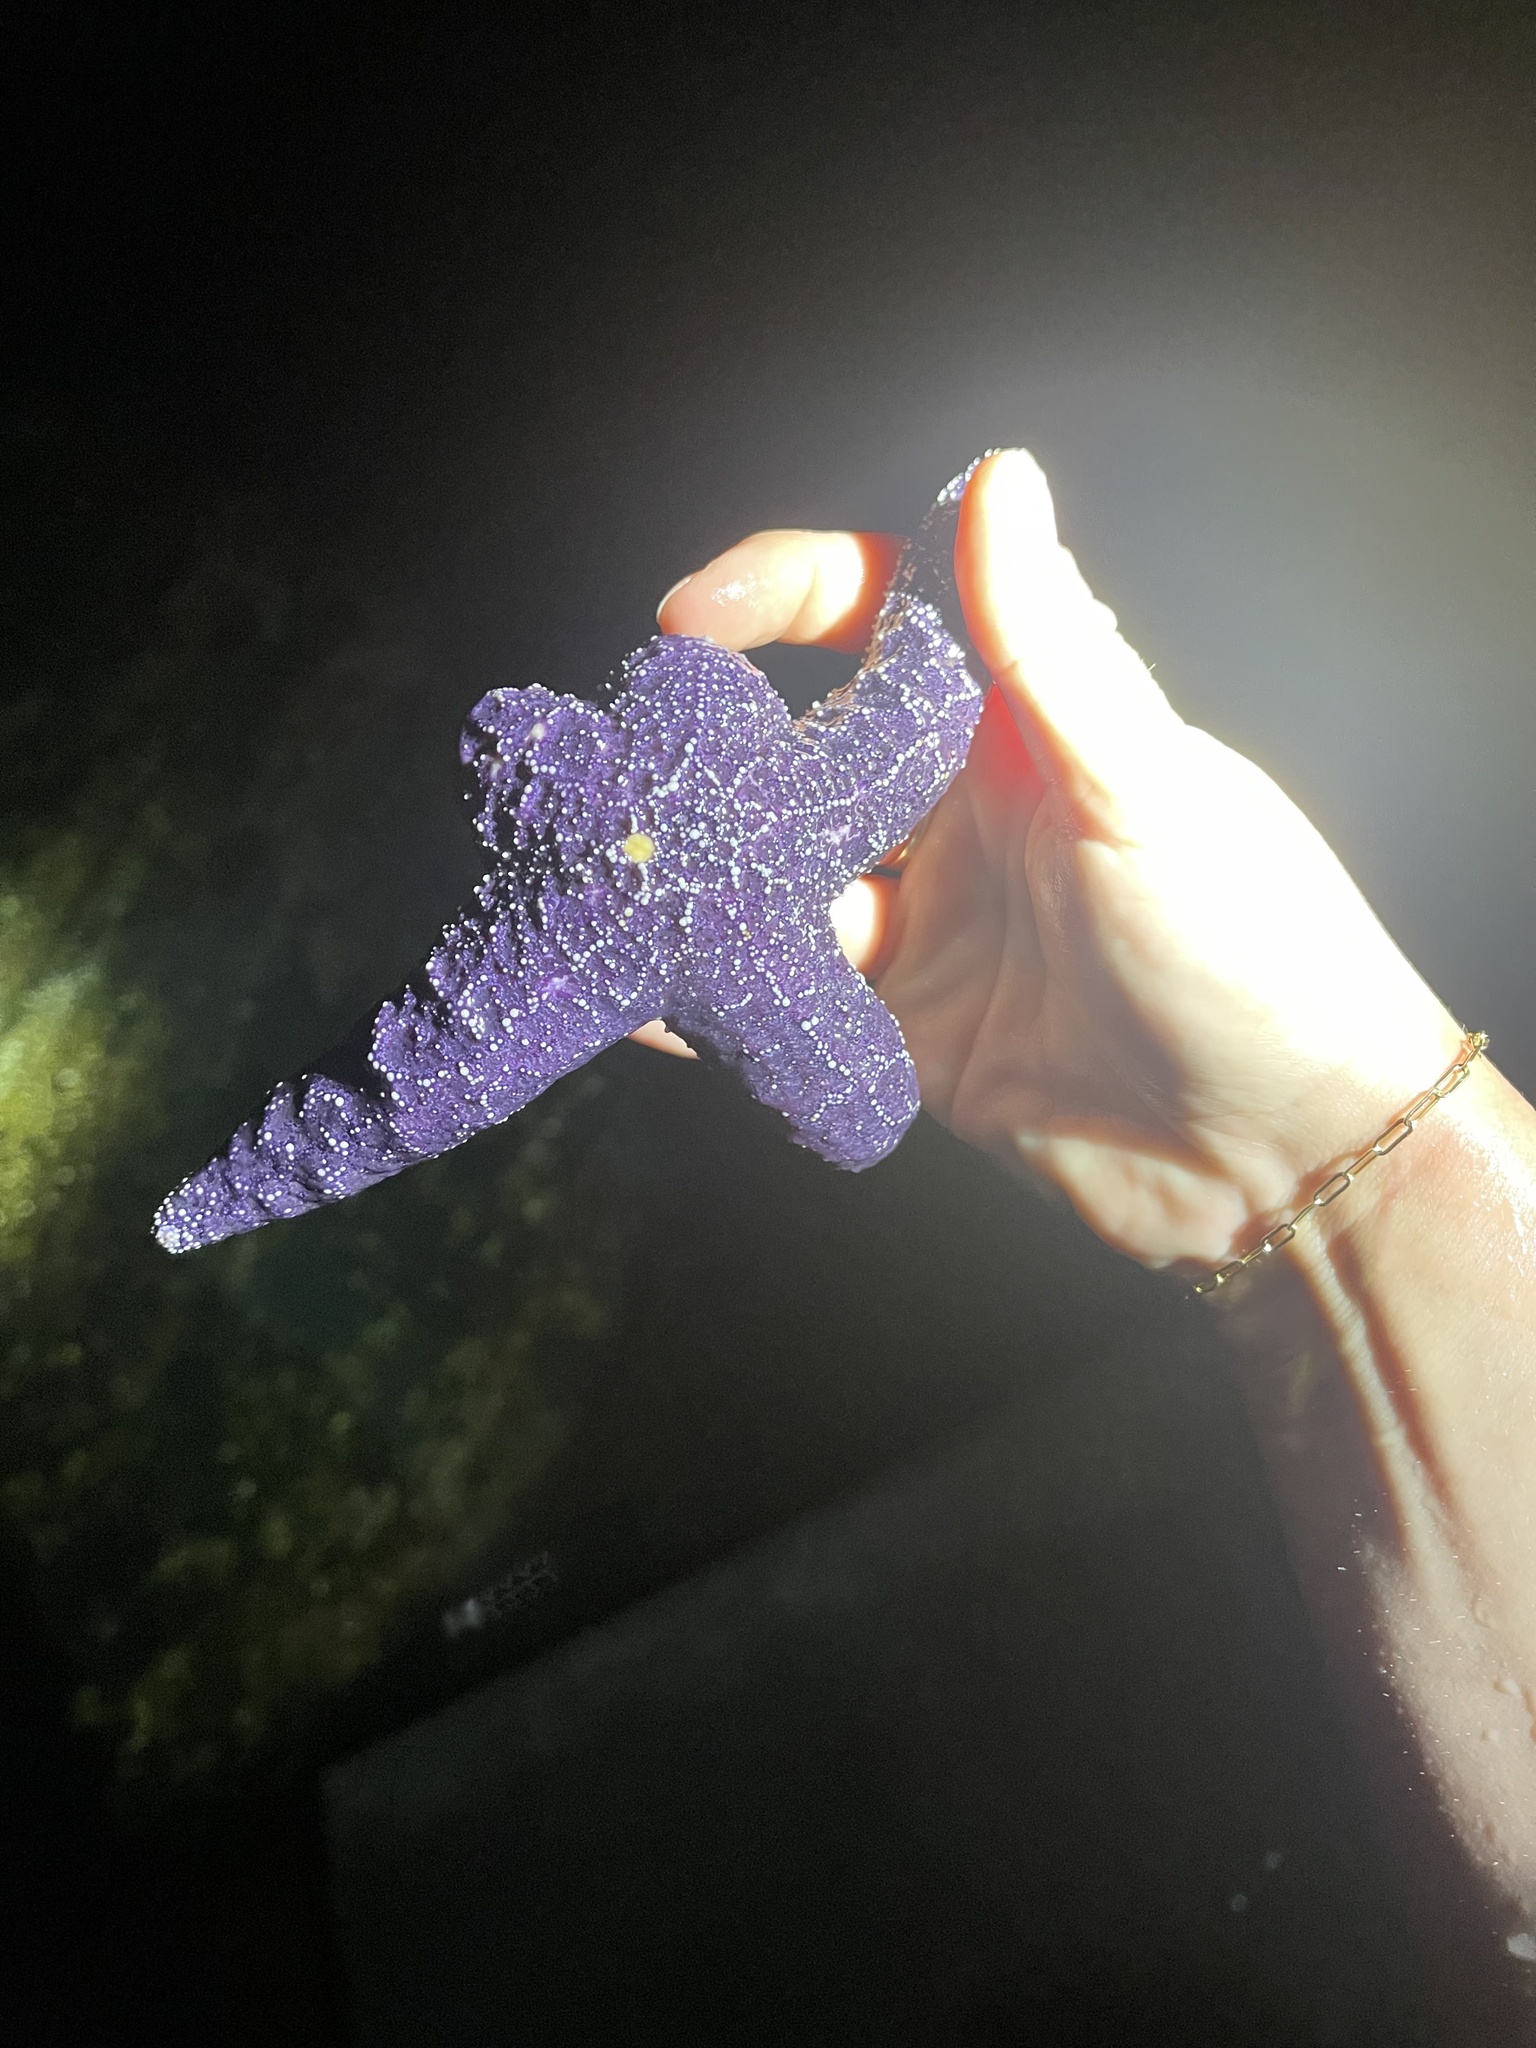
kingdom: Animalia
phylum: Echinodermata
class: Asteroidea
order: Forcipulatida
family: Asteriidae
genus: Pisaster
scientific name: Pisaster ochraceus
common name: Ochre stars
